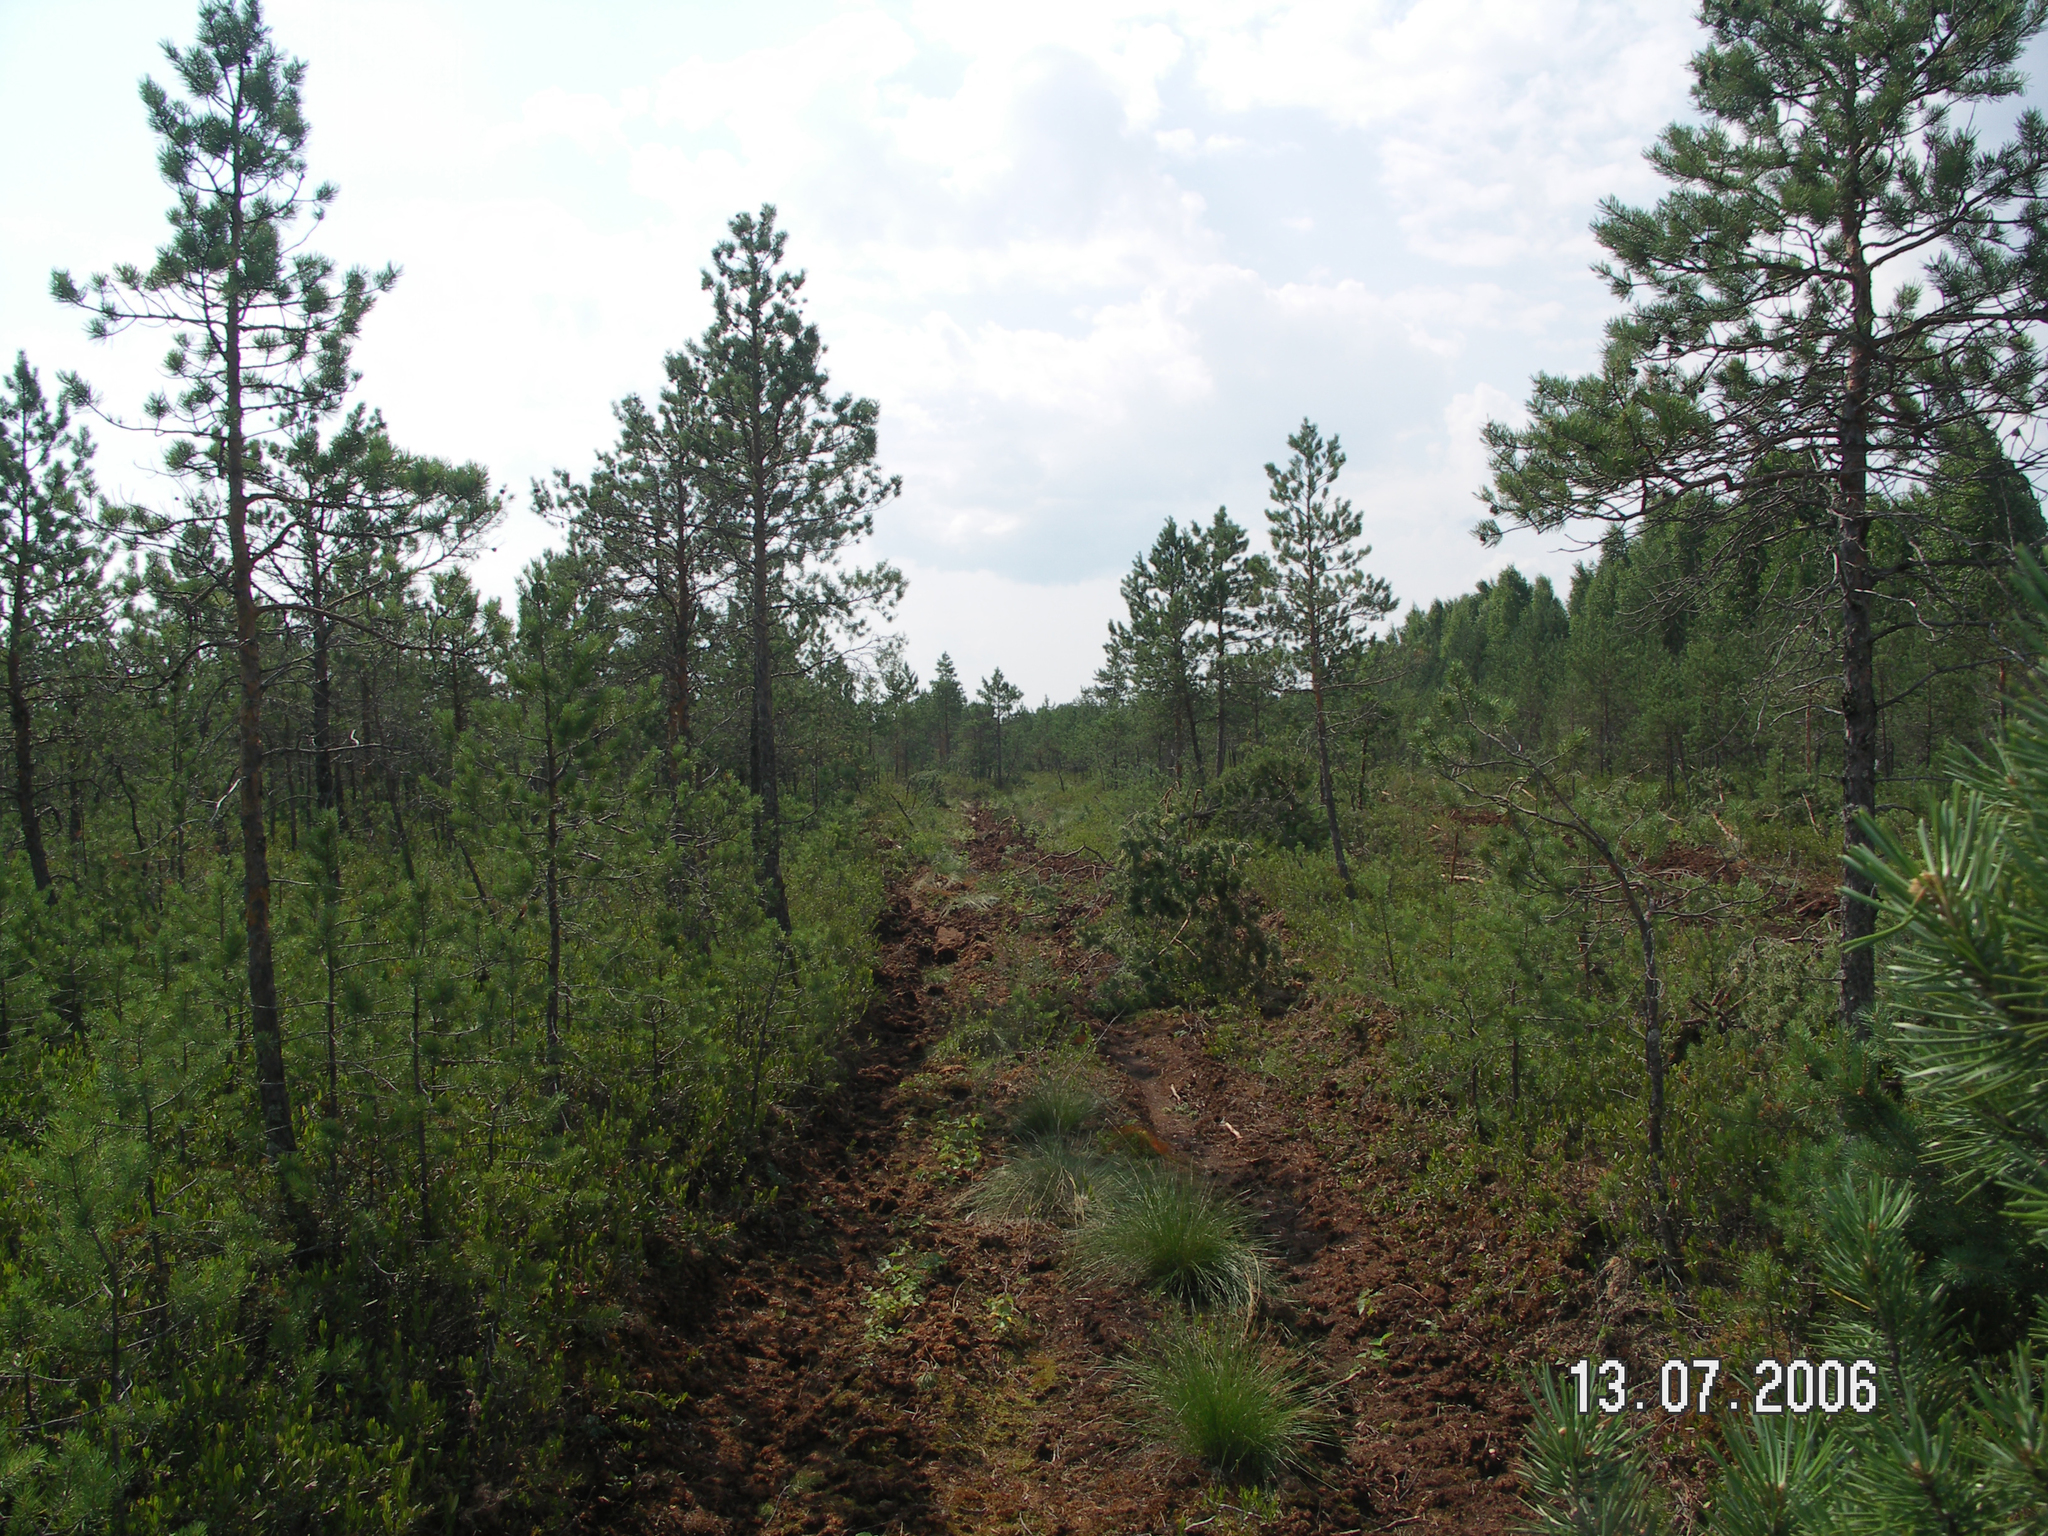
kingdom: Plantae
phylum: Tracheophyta
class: Pinopsida
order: Pinales
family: Pinaceae
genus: Pinus
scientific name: Pinus sylvestris
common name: Scots pine
